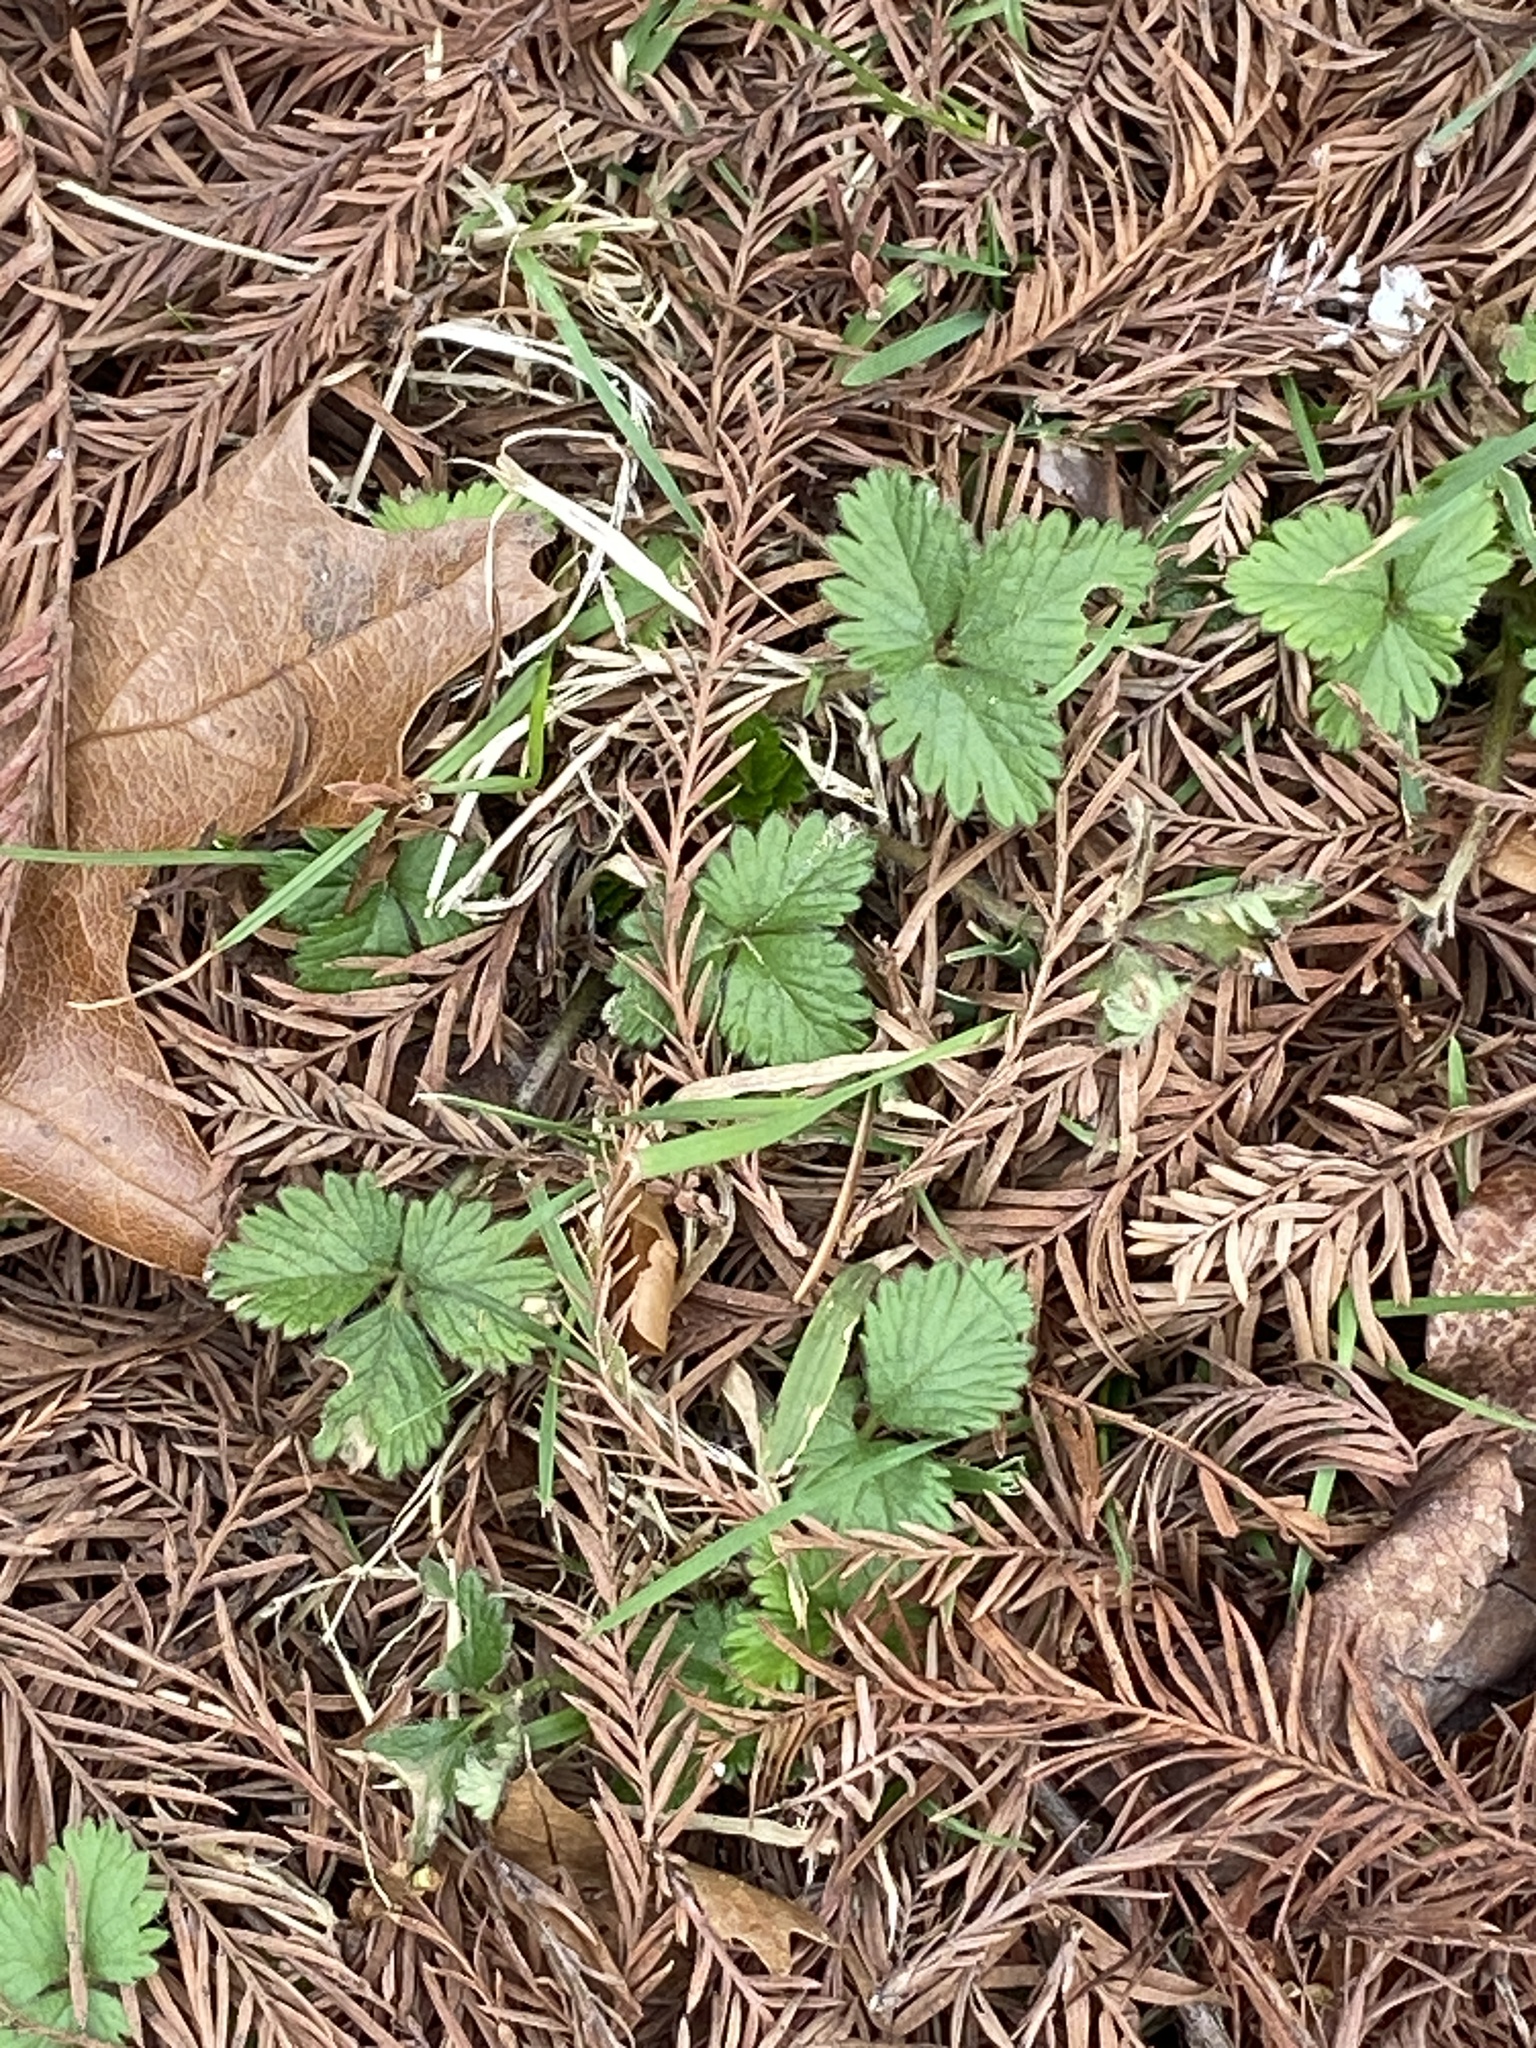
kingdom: Plantae
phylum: Tracheophyta
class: Magnoliopsida
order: Rosales
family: Rosaceae
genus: Potentilla
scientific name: Potentilla indica
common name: Yellow-flowered strawberry
